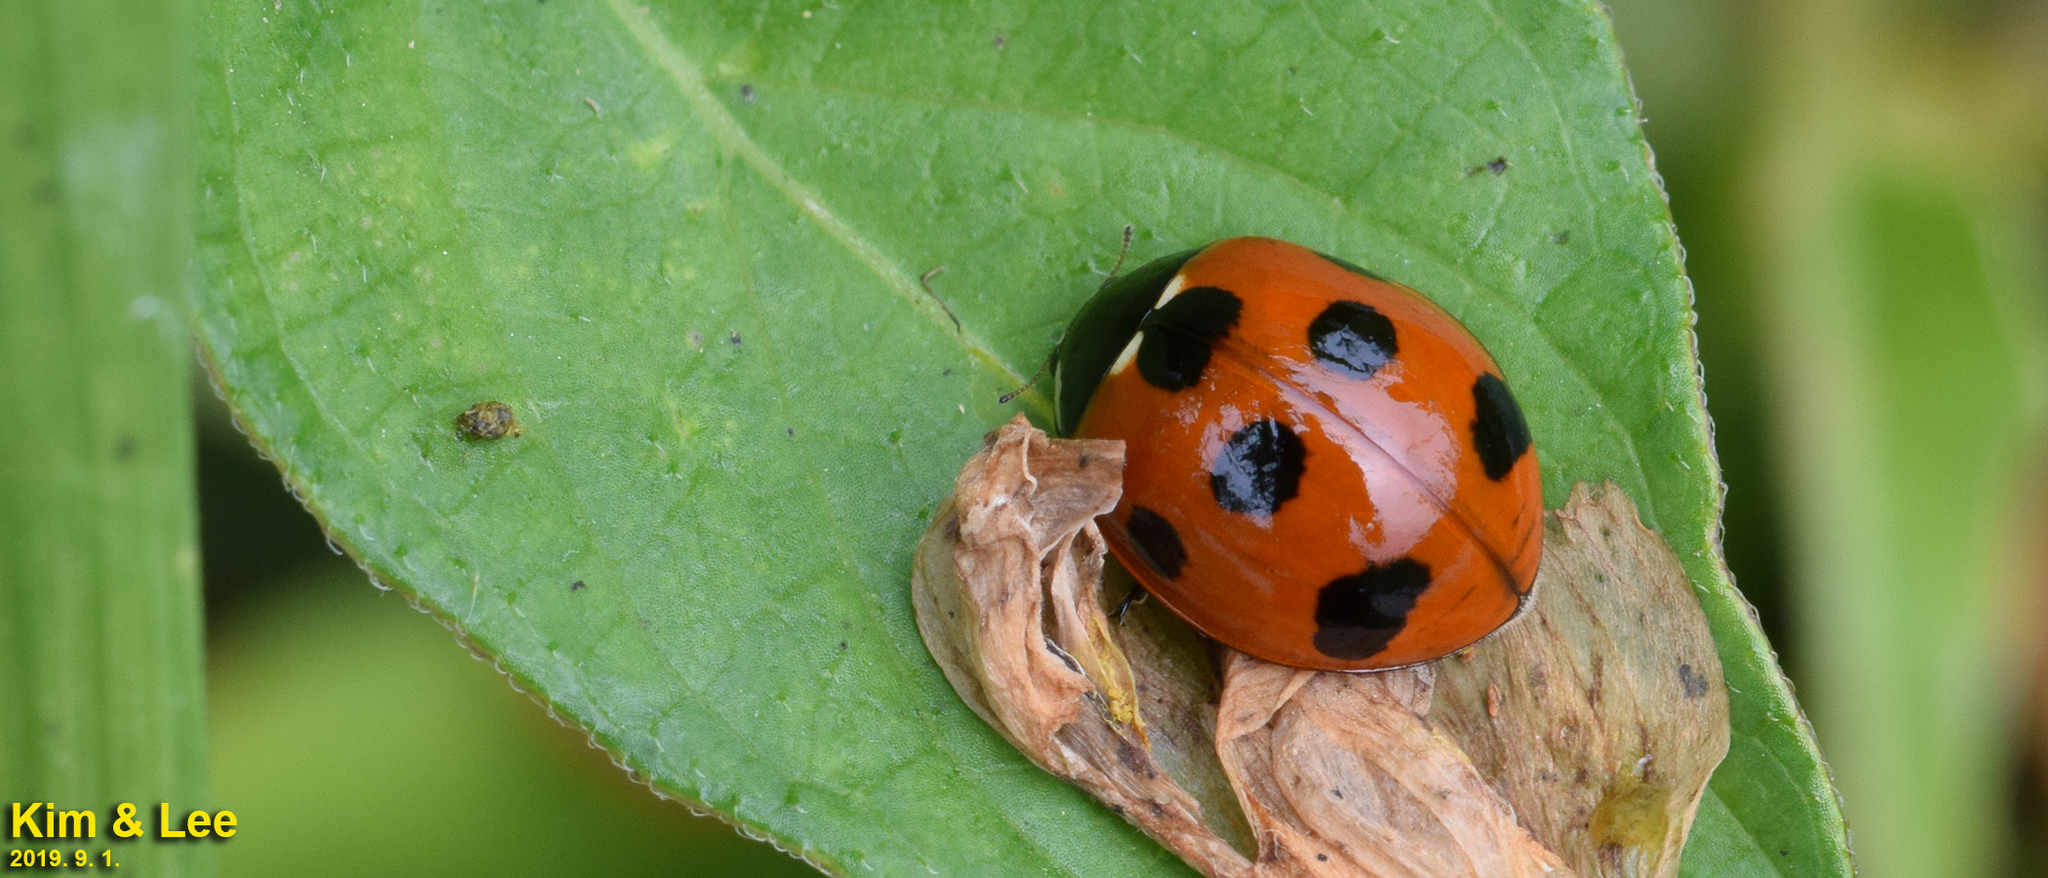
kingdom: Animalia
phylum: Arthropoda
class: Insecta
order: Coleoptera
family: Coccinellidae
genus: Coccinella
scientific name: Coccinella septempunctata
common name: Sevenspotted lady beetle
